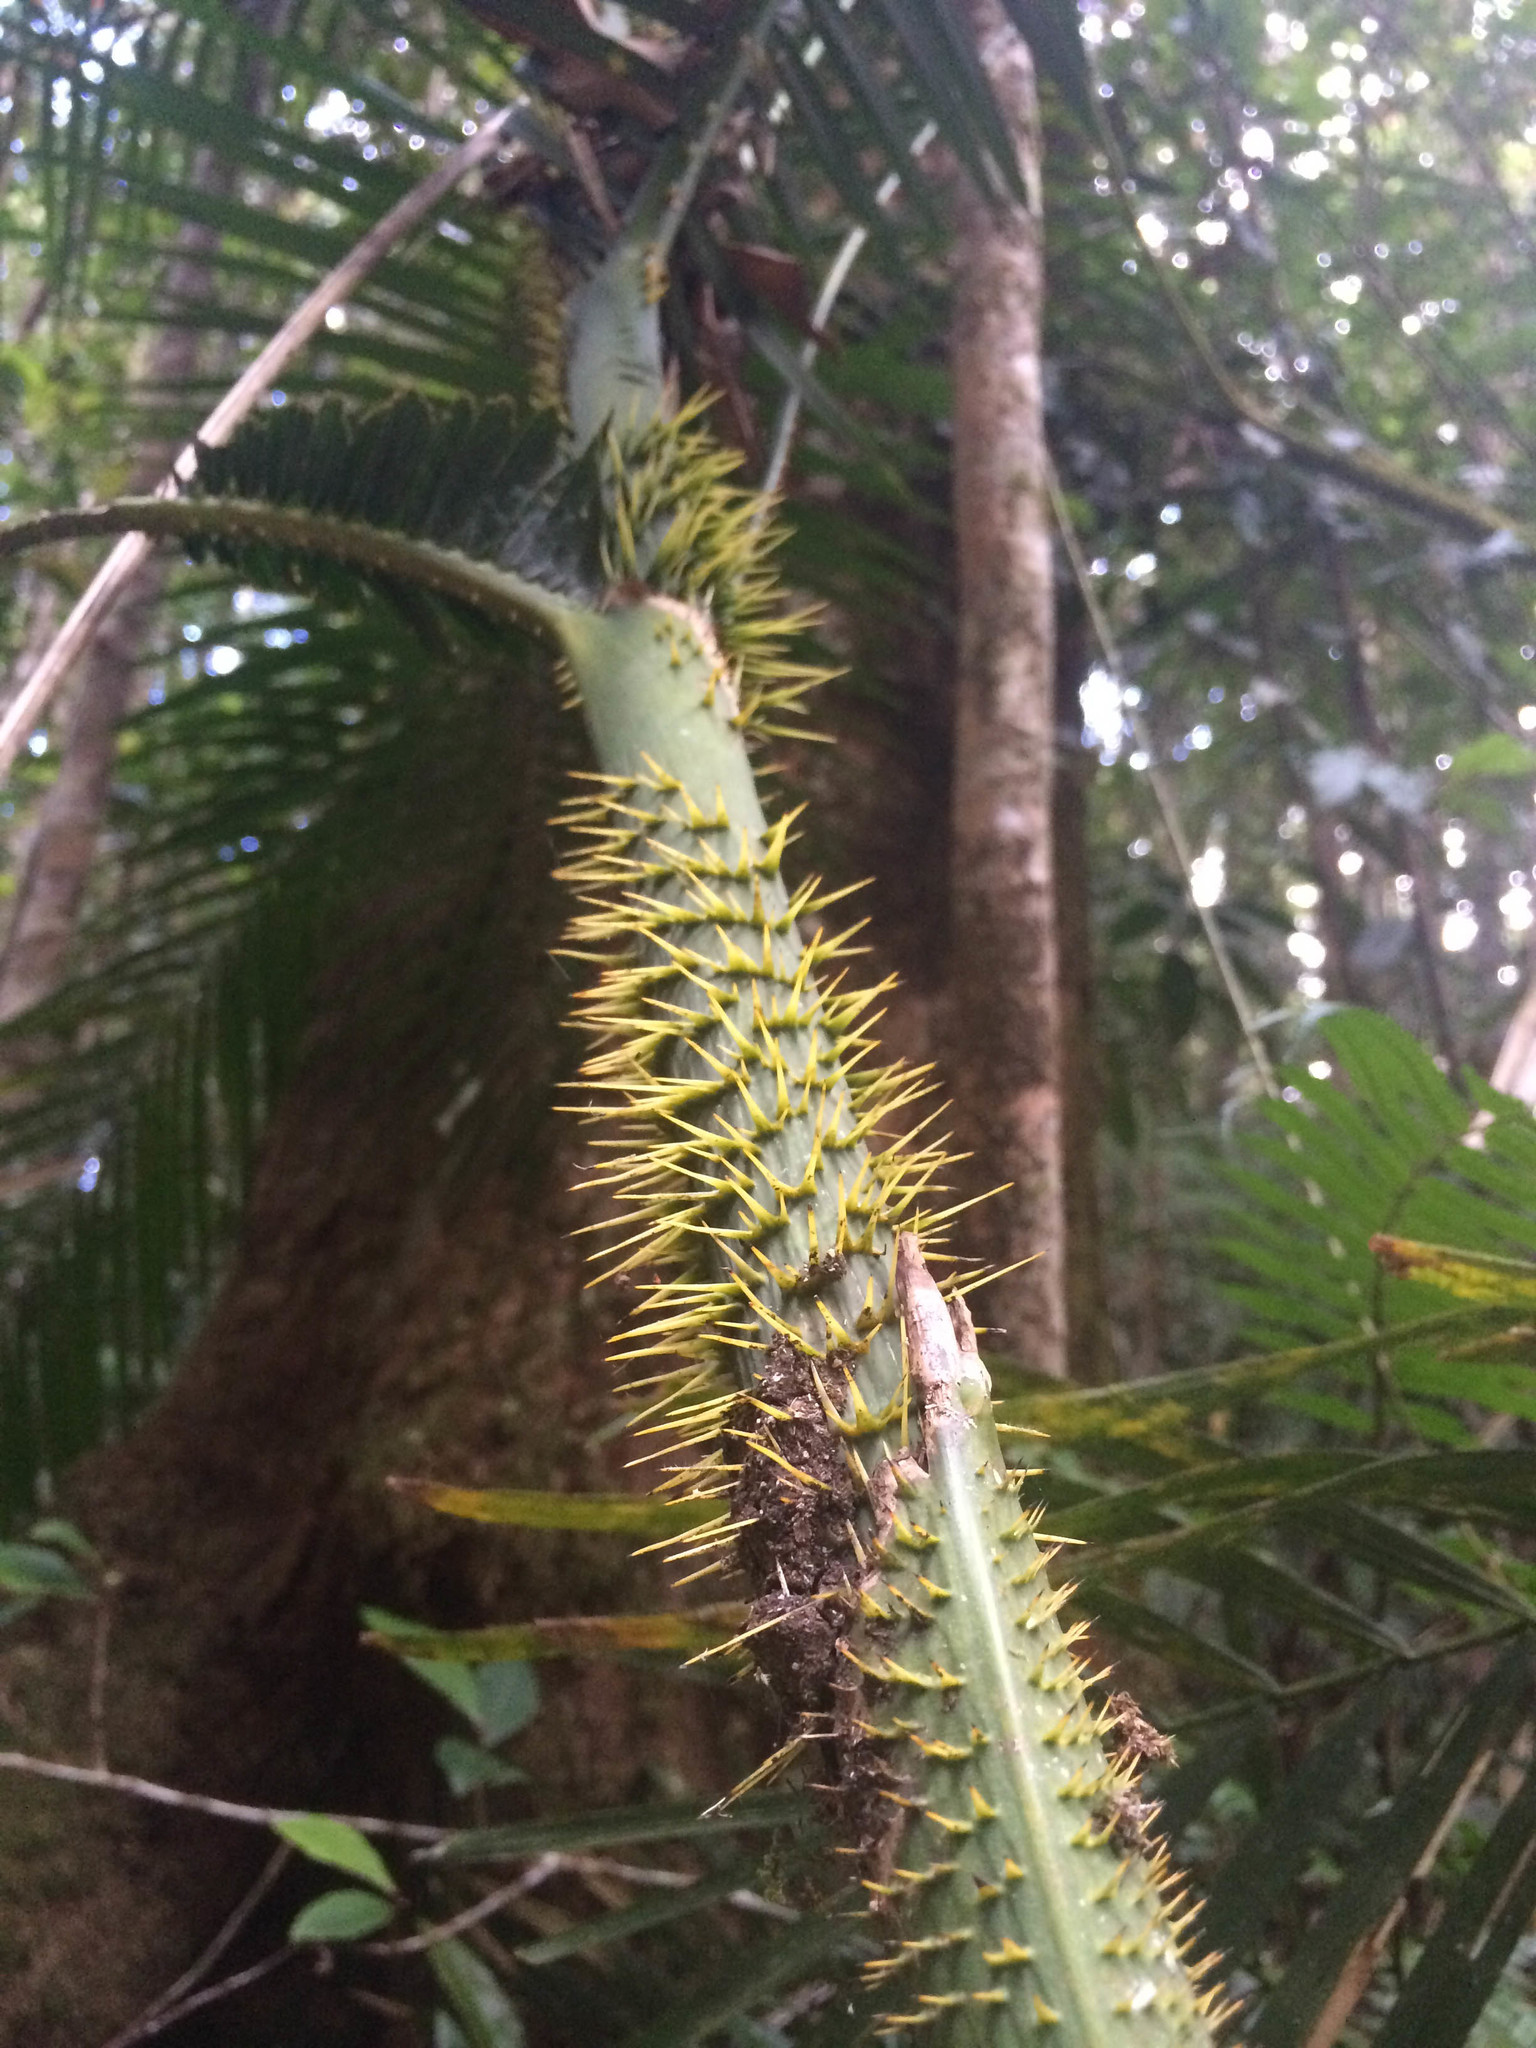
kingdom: Plantae
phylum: Tracheophyta
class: Liliopsida
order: Arecales
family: Arecaceae
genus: Calamus
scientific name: Calamus moti
